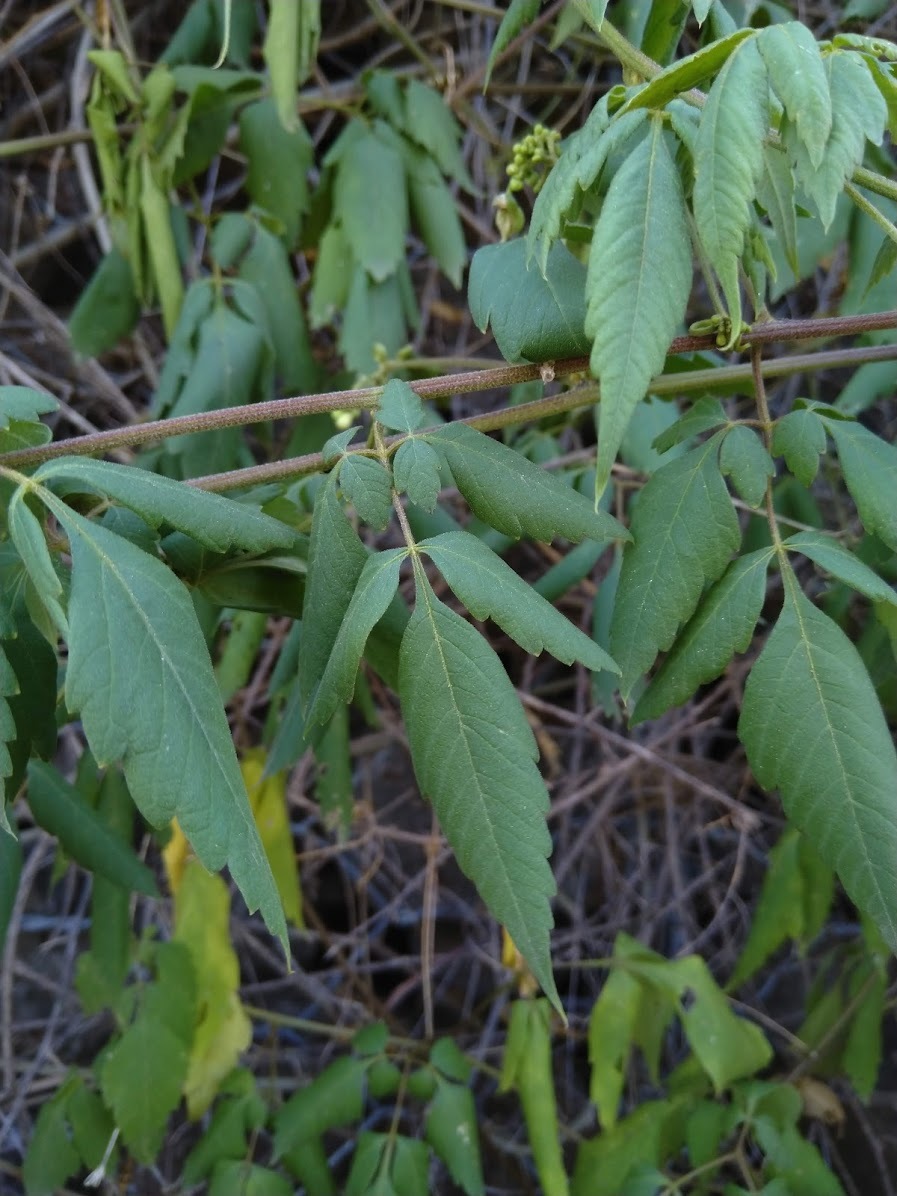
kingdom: Plantae
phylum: Tracheophyta
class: Magnoliopsida
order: Sapindales
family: Sapindaceae
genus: Cardiospermum
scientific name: Cardiospermum grandiflorum
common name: Balloon vine
